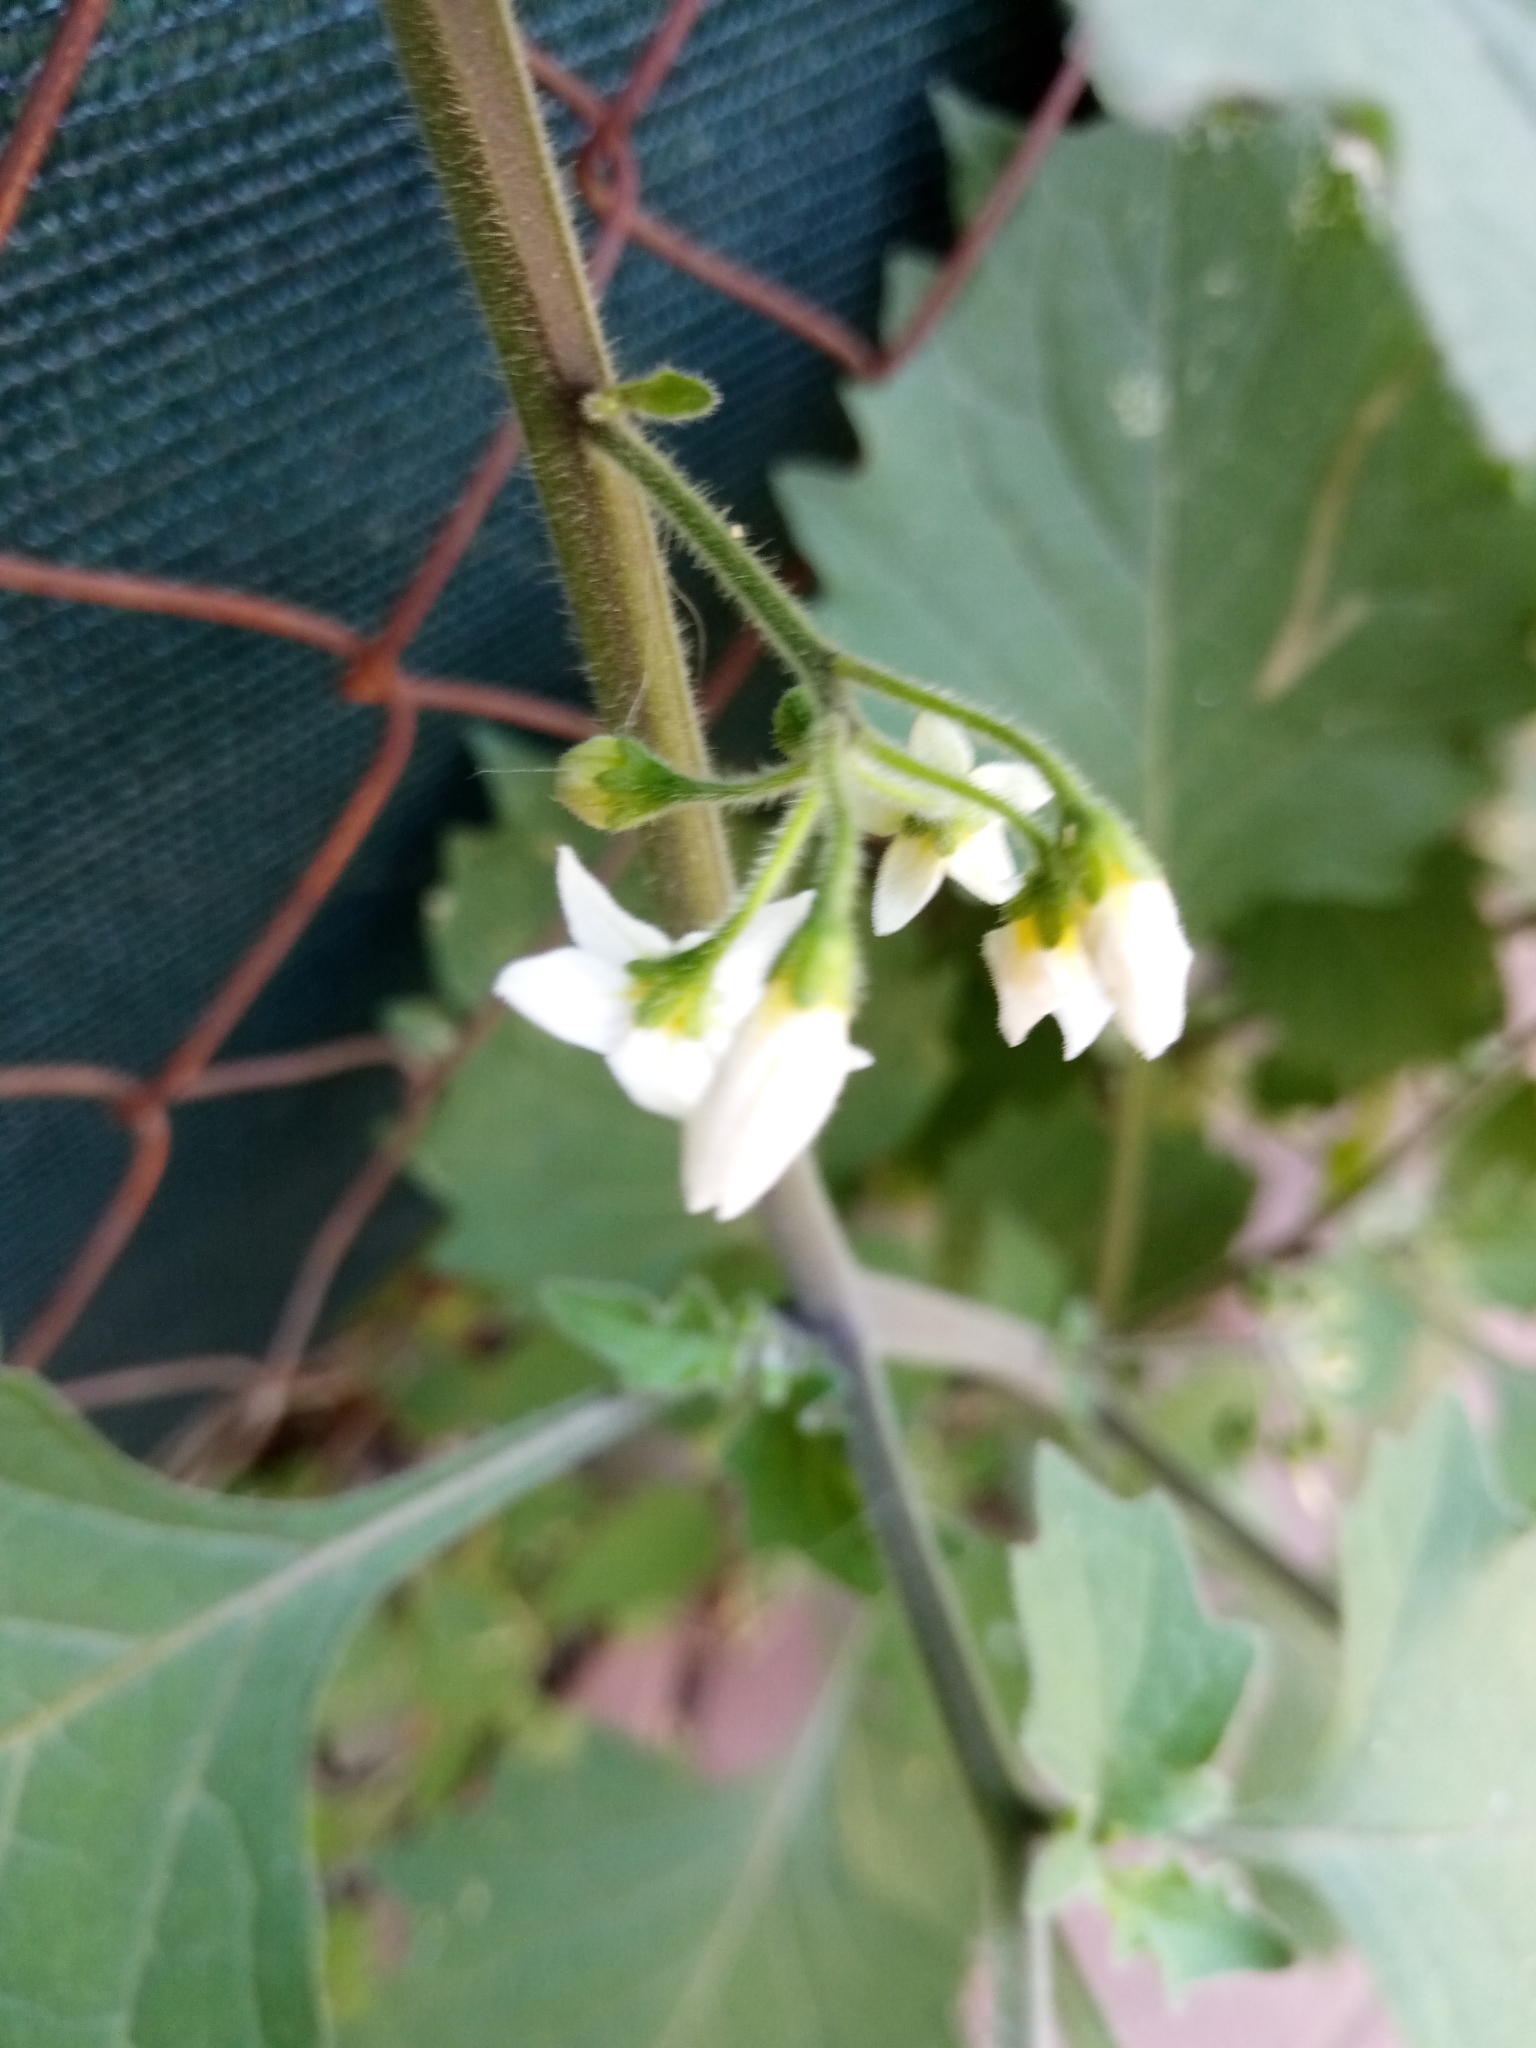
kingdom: Plantae
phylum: Tracheophyta
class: Magnoliopsida
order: Solanales
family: Solanaceae
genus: Solanum
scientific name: Solanum nigrum
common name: Black nightshade
